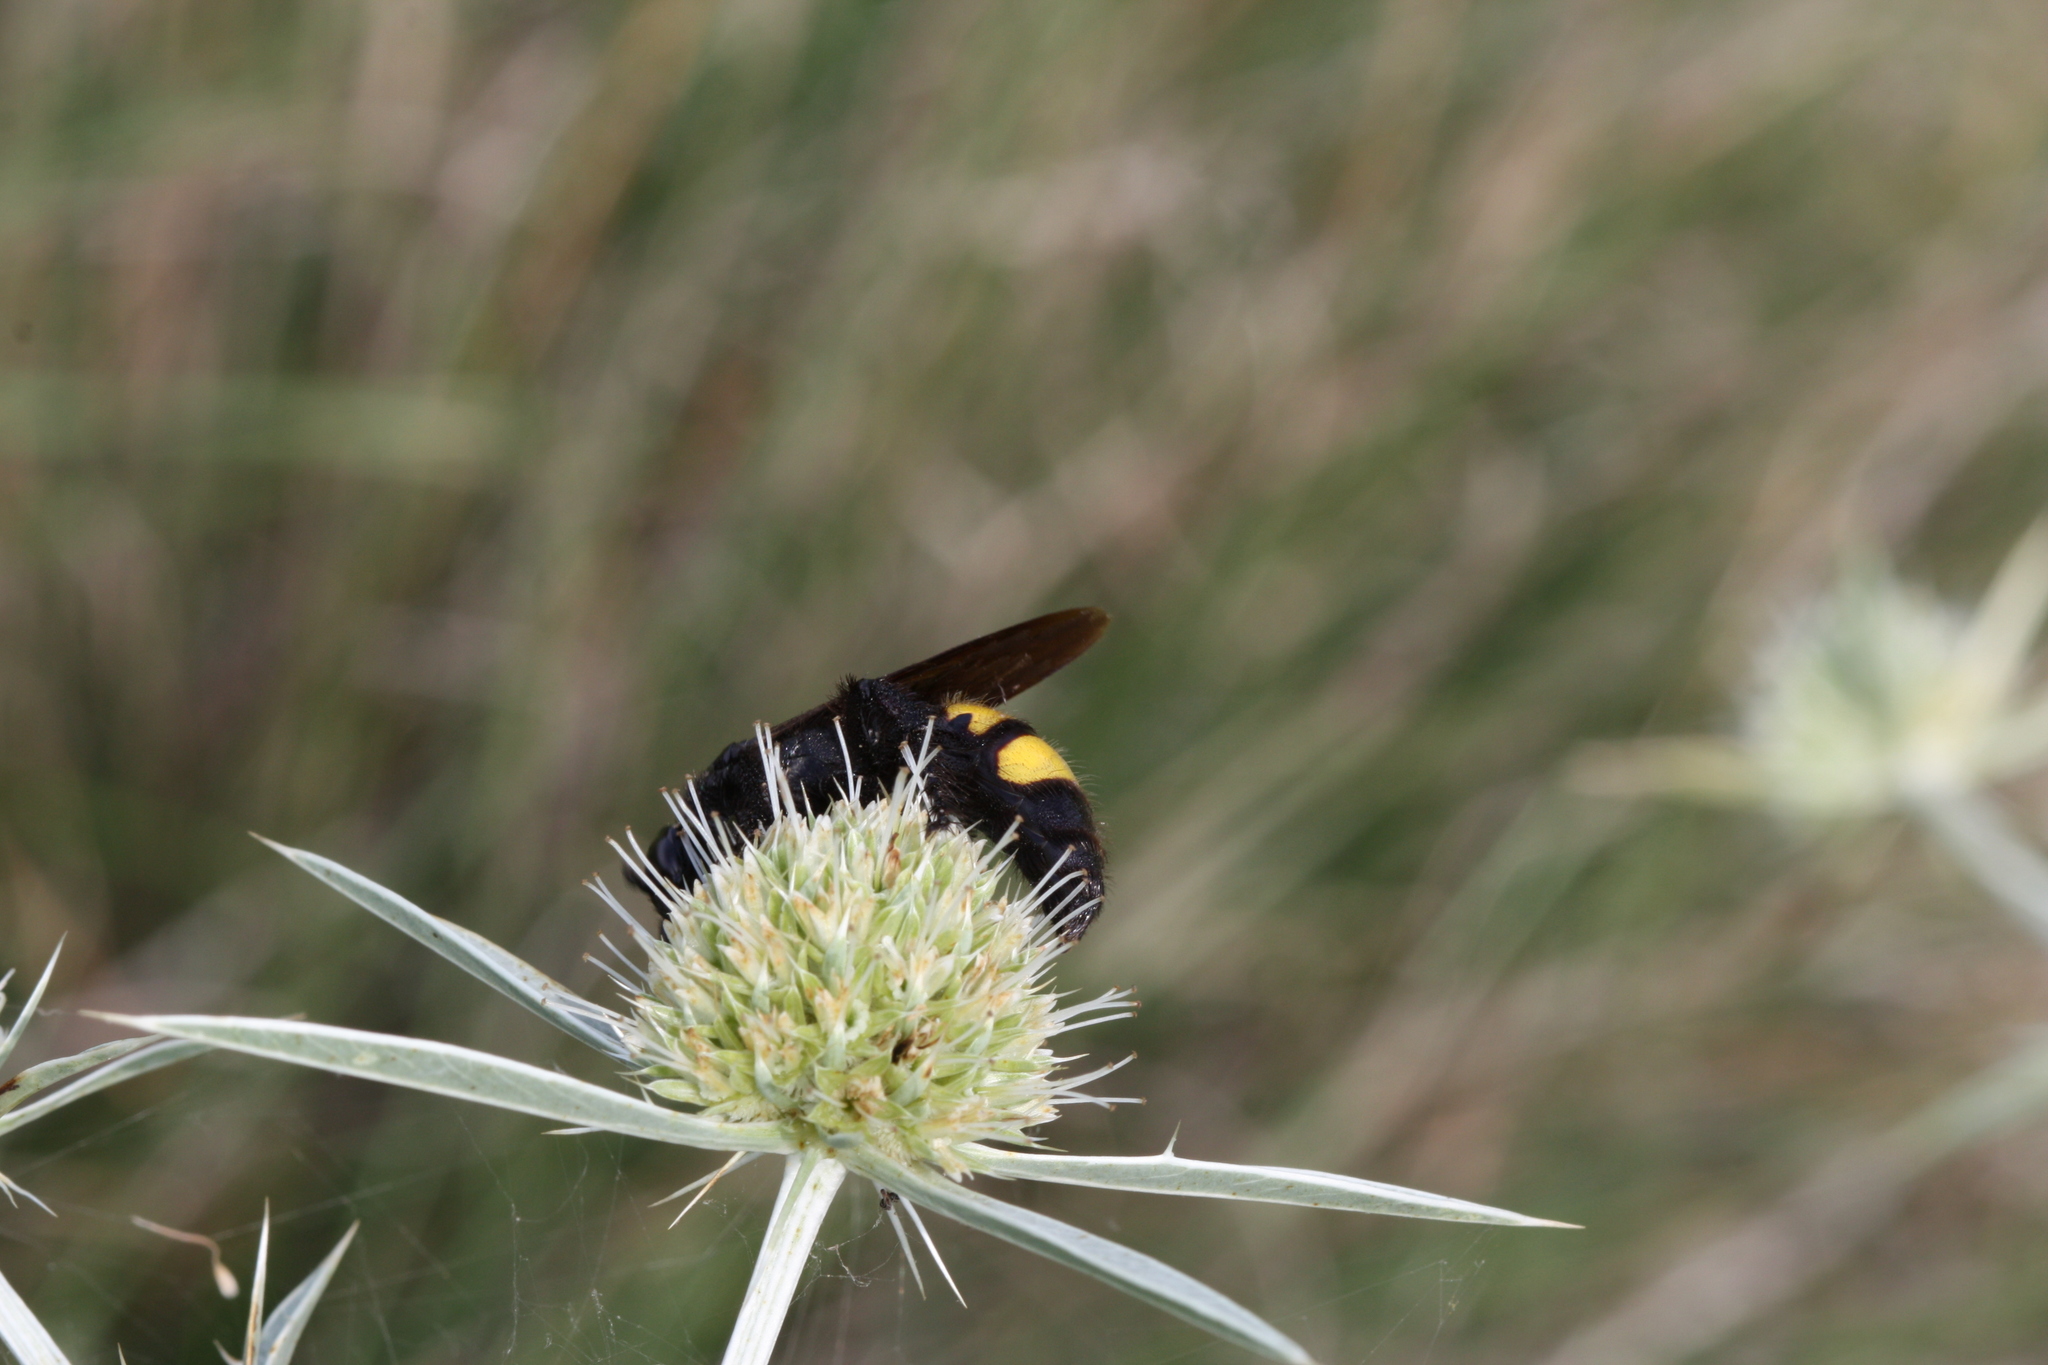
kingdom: Animalia
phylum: Arthropoda
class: Insecta
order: Hymenoptera
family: Scoliidae
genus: Scolia
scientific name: Scolia hirta
